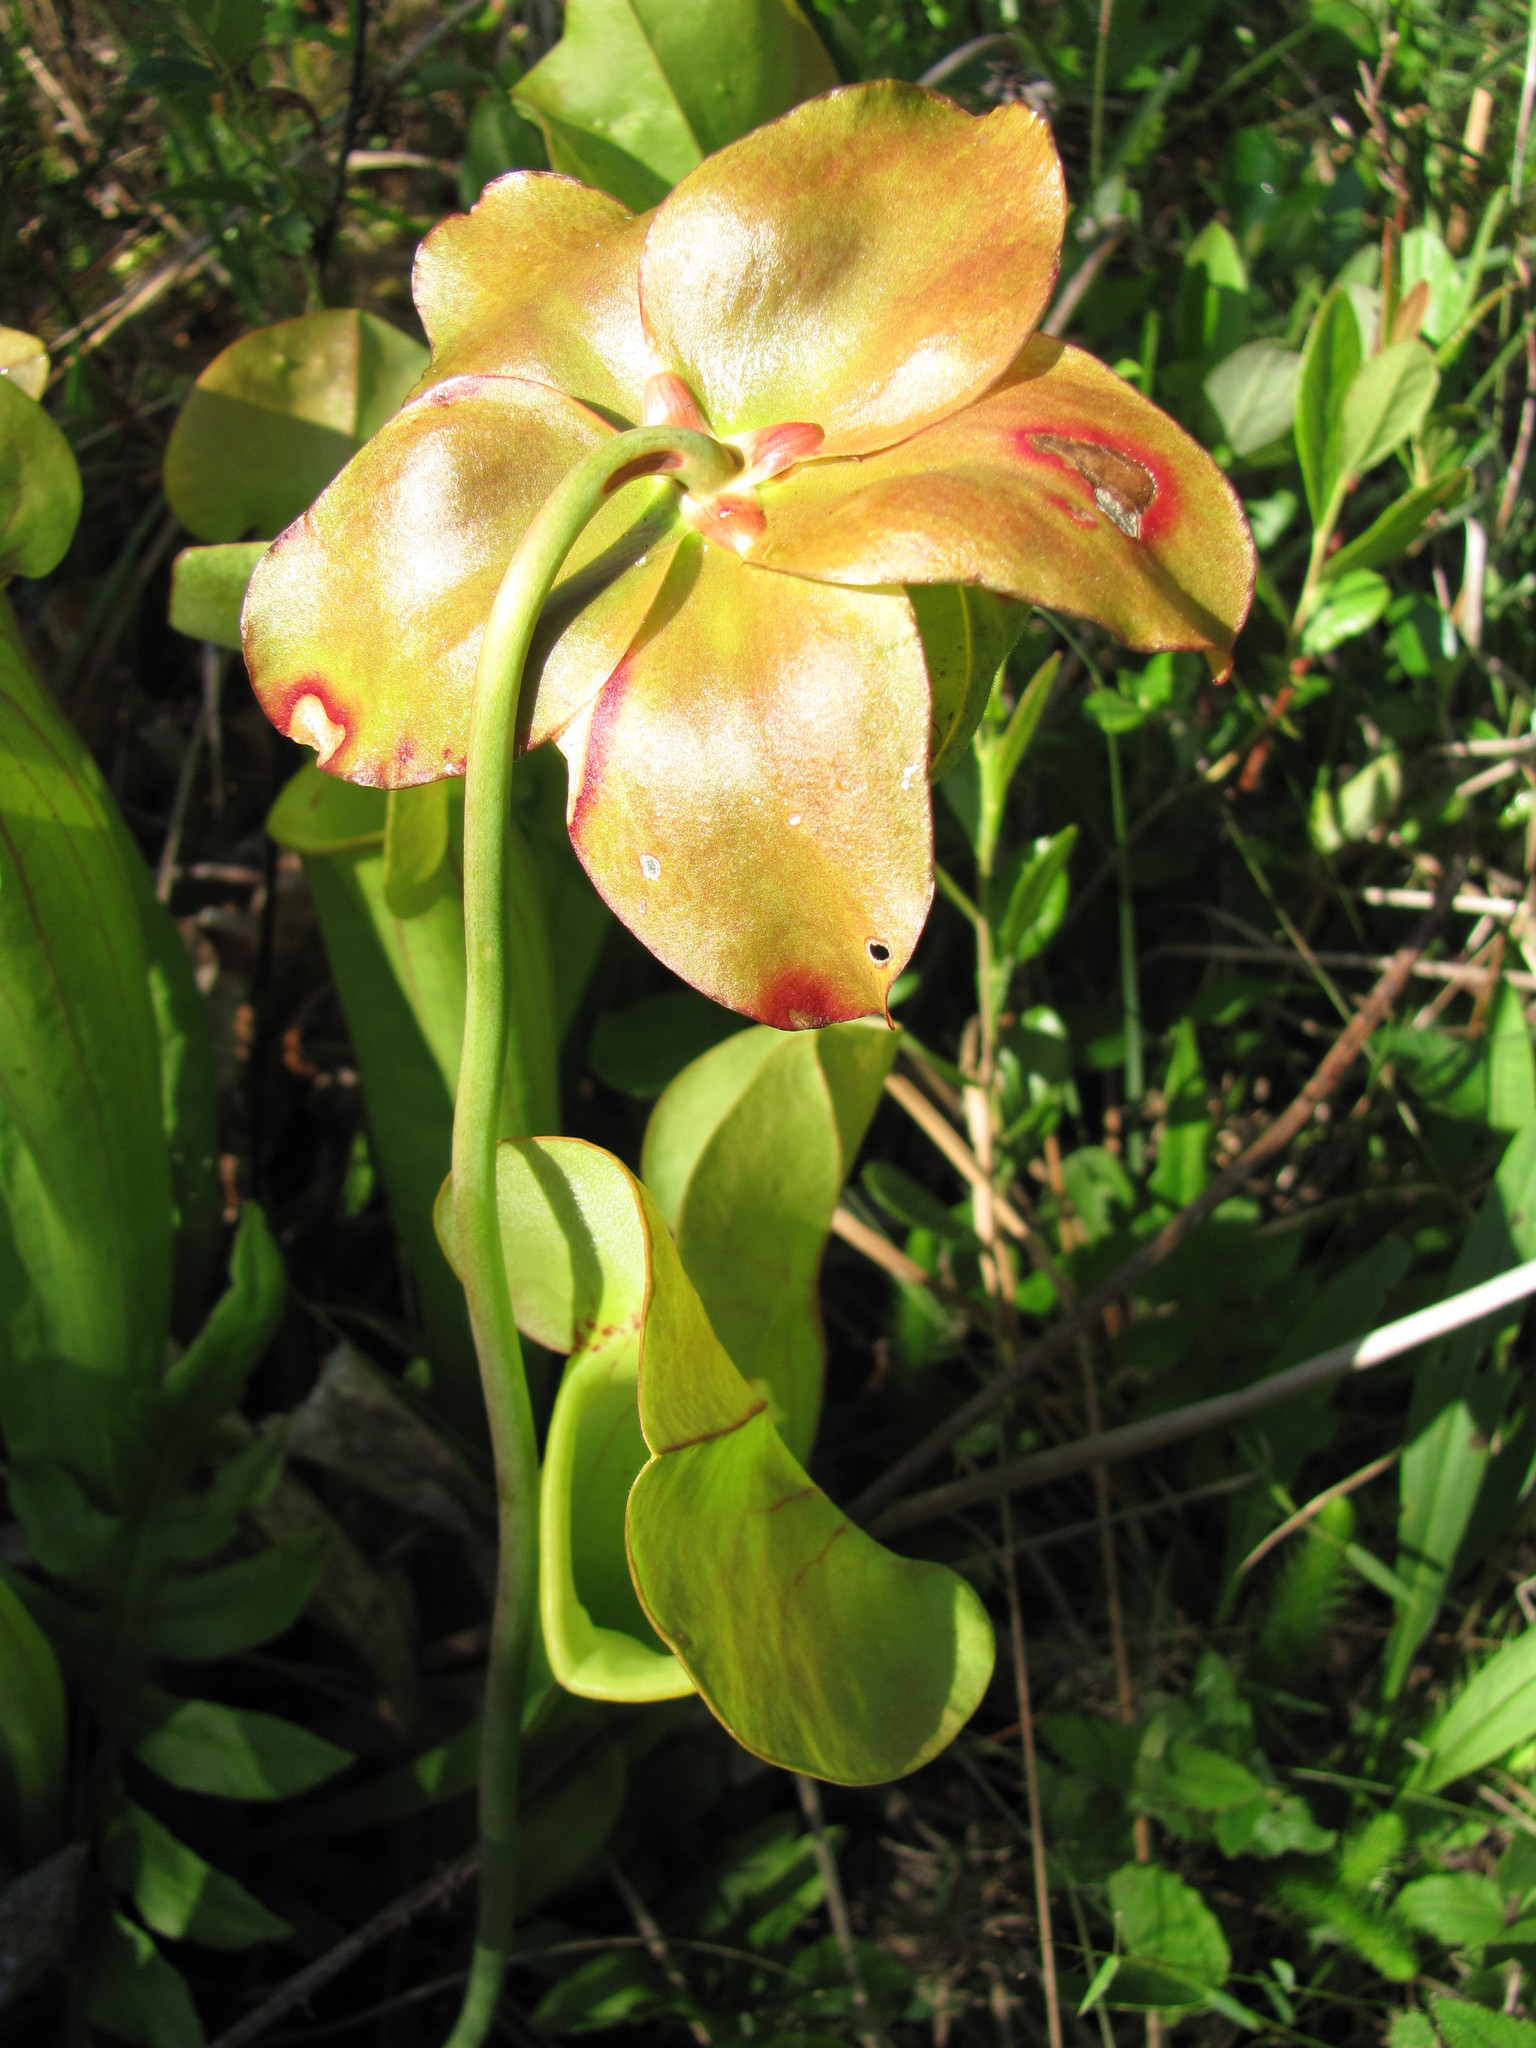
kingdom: Plantae
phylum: Tracheophyta
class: Magnoliopsida
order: Ericales
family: Sarraceniaceae
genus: Sarracenia
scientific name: Sarracenia naczii
